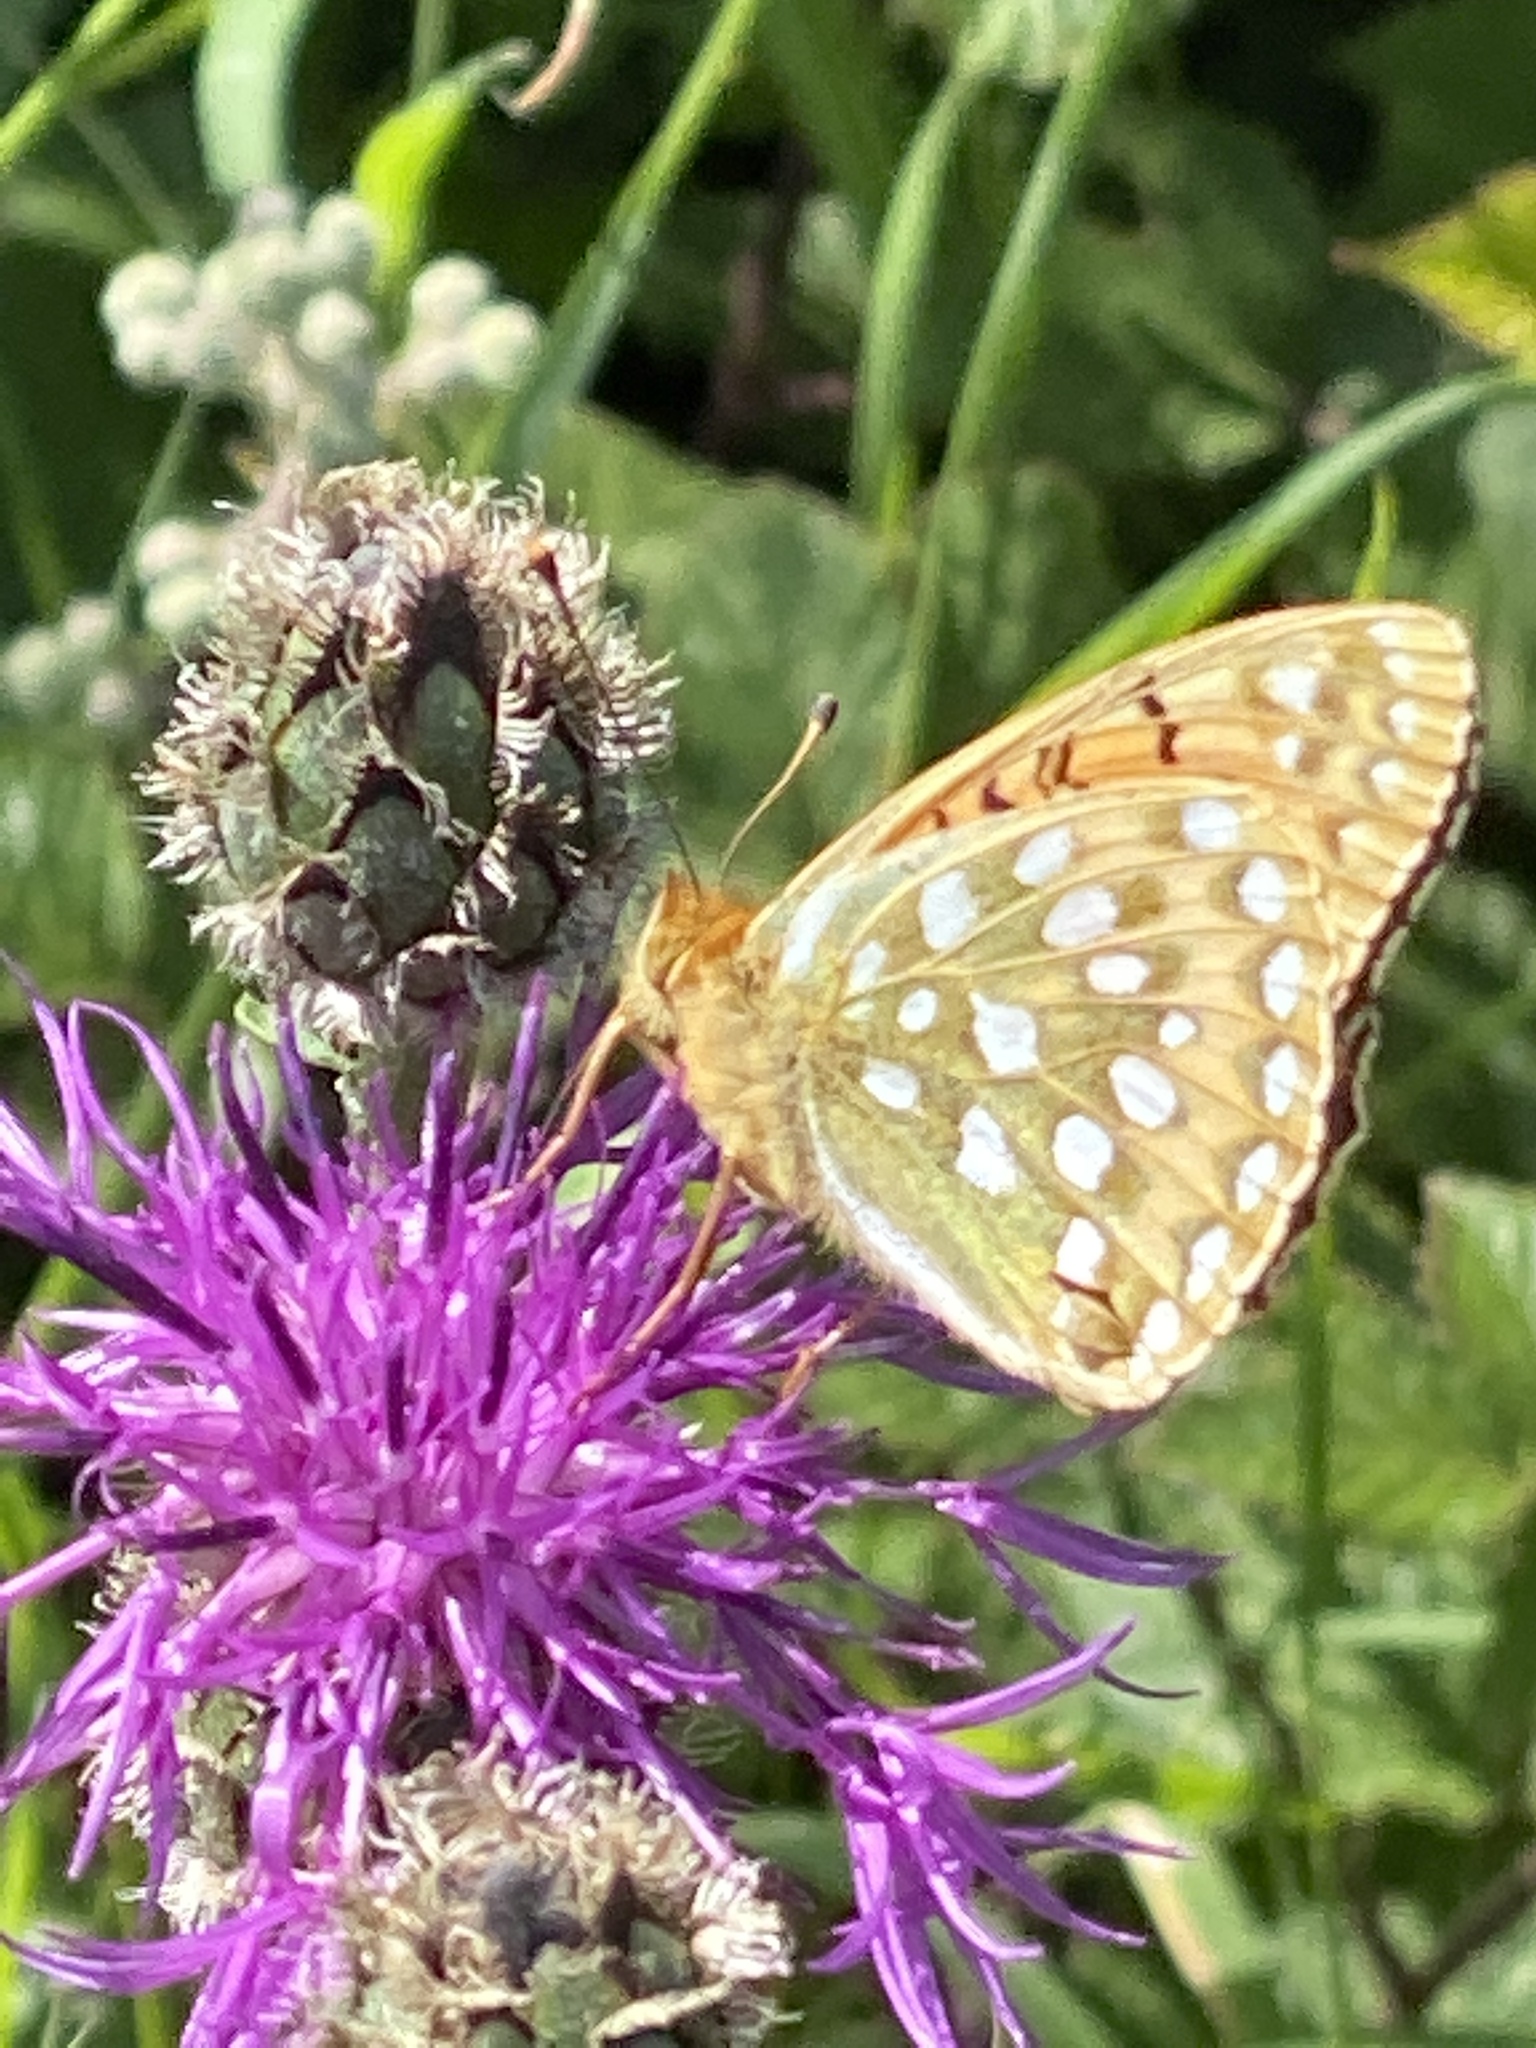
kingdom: Animalia
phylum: Arthropoda
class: Insecta
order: Lepidoptera
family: Nymphalidae
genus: Speyeria
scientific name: Speyeria aglaja
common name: Dark green fritillary
